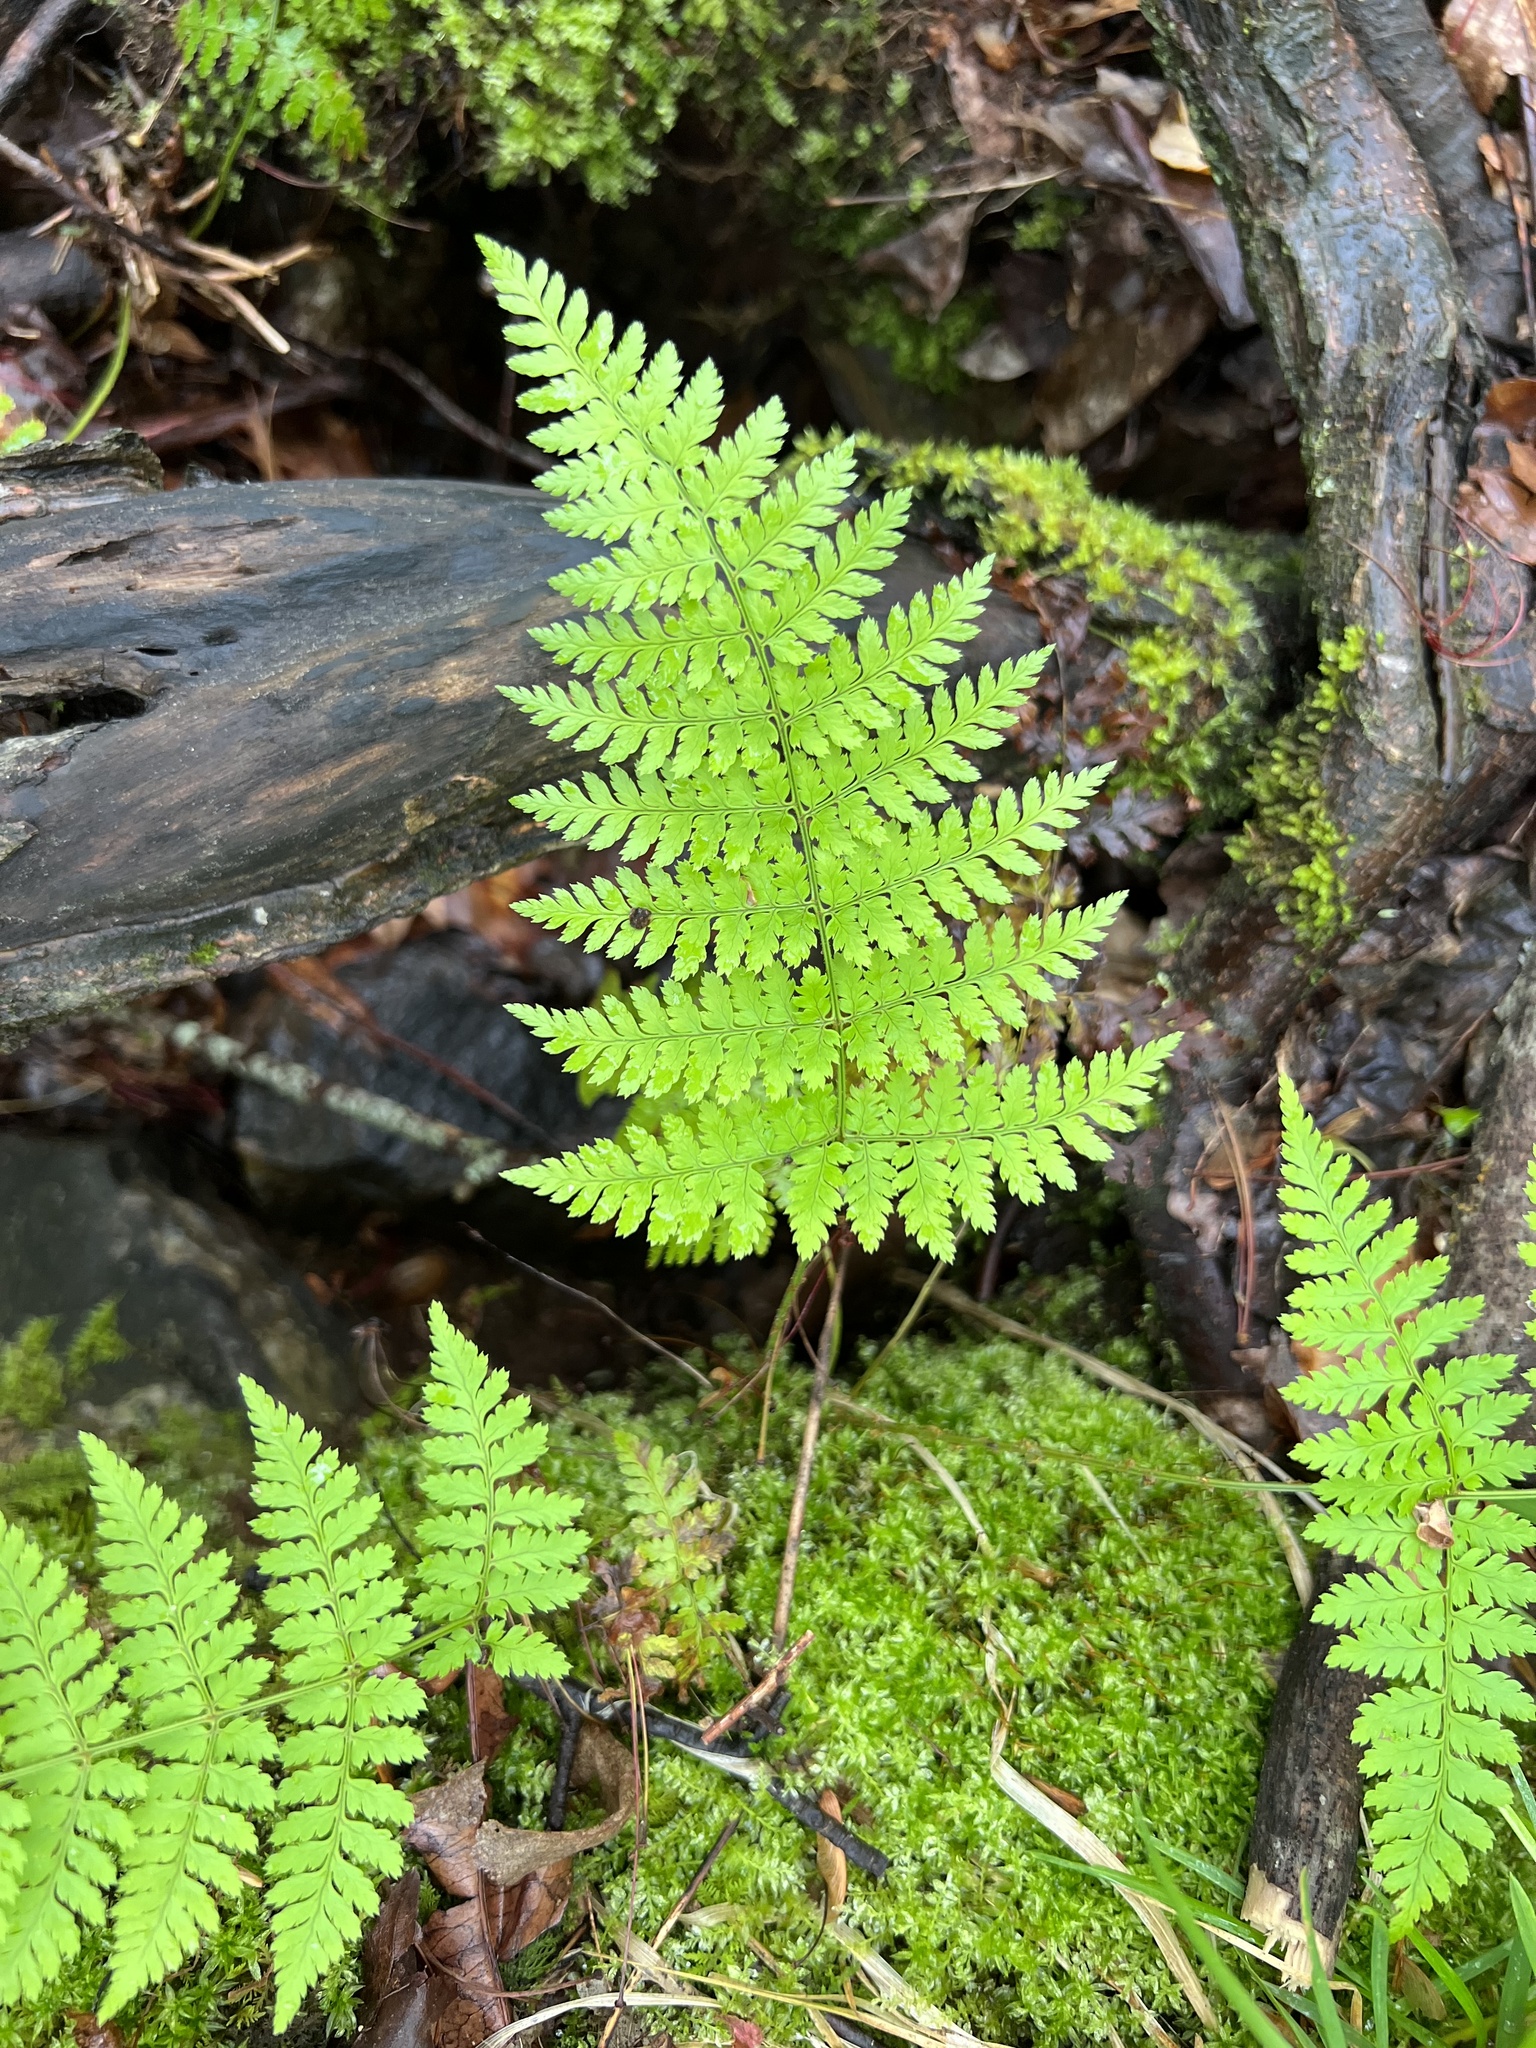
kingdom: Plantae
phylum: Tracheophyta
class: Polypodiopsida
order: Polypodiales
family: Dryopteridaceae
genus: Dryopteris
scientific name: Dryopteris intermedia
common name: Evergreen wood fern
